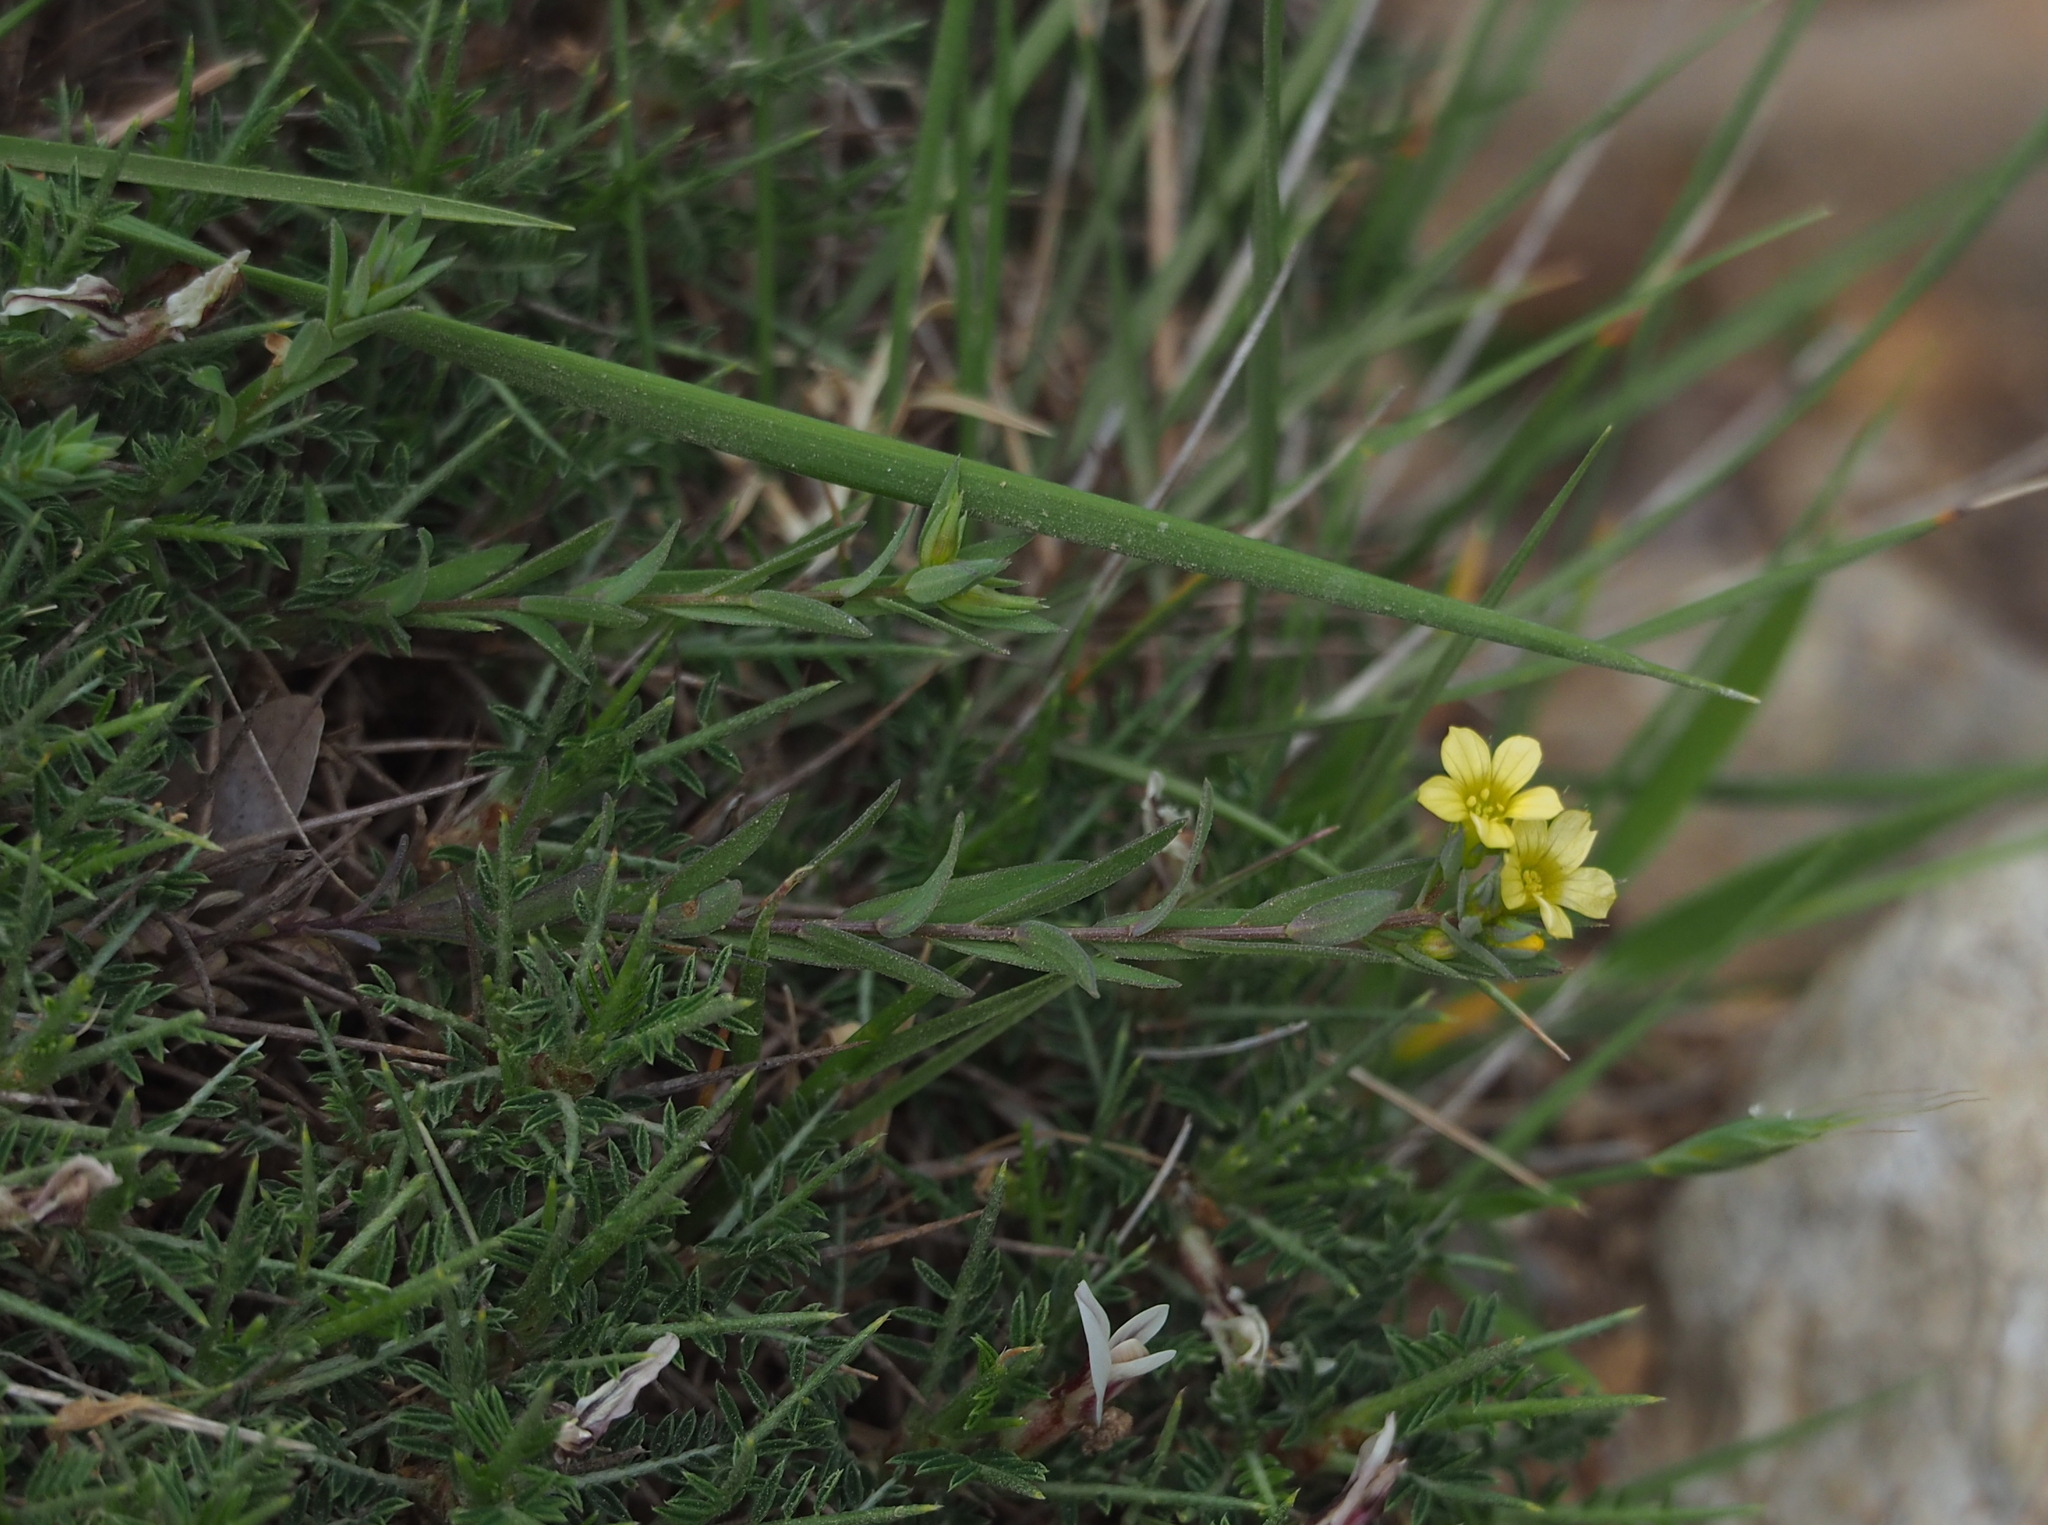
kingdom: Plantae
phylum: Tracheophyta
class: Magnoliopsida
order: Malpighiales
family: Linaceae
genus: Linum
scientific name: Linum strictum
